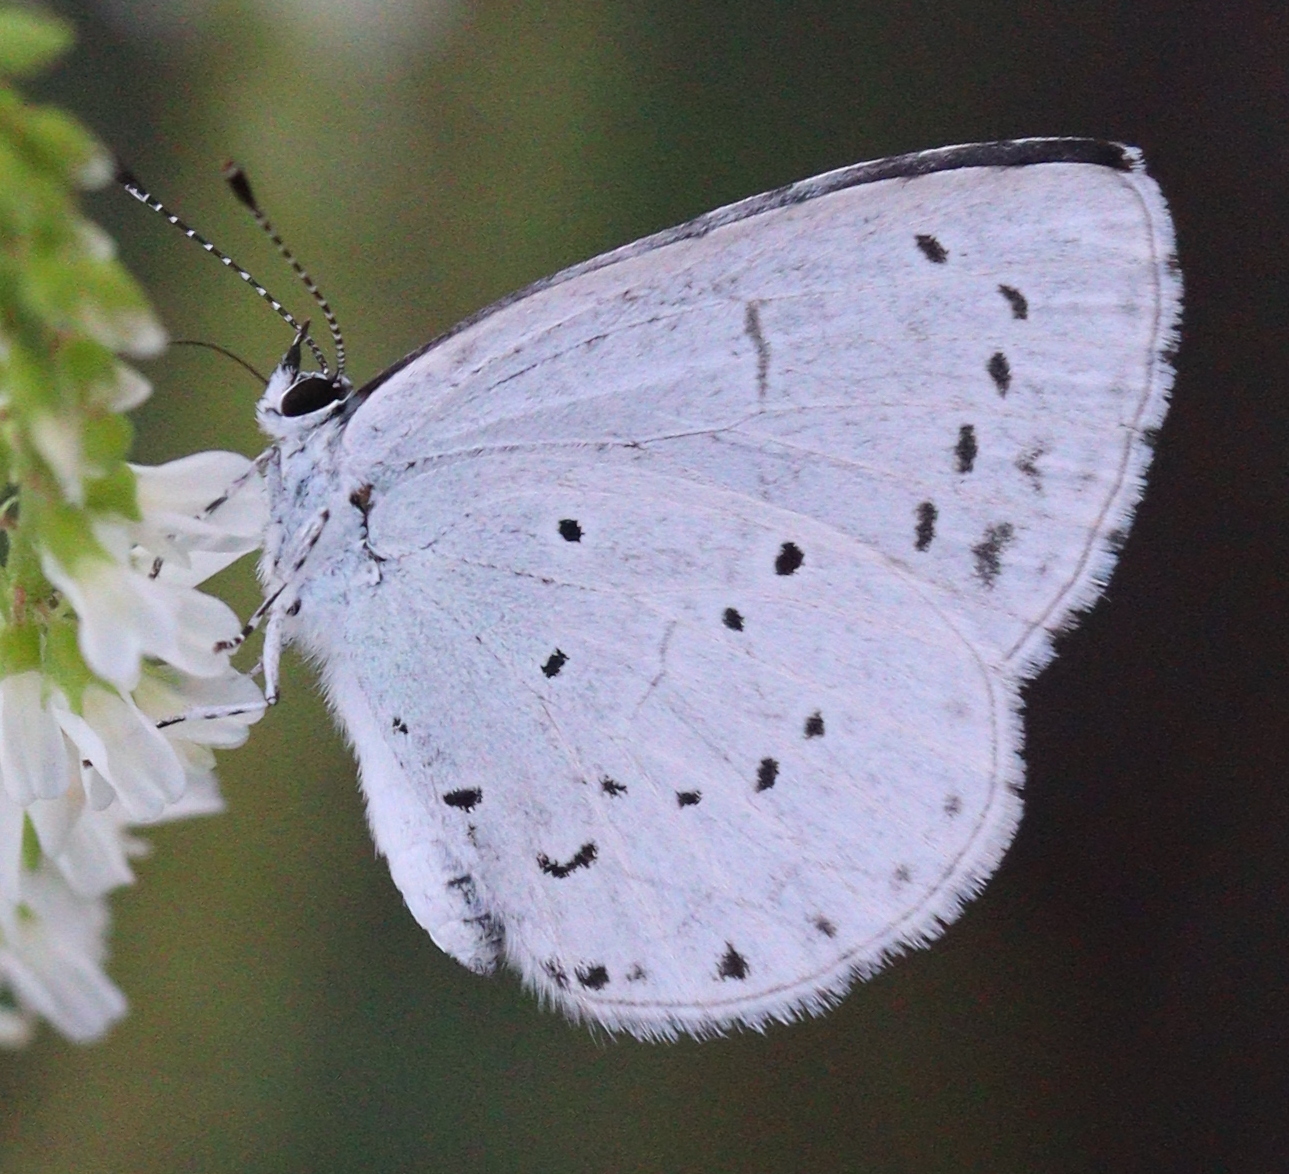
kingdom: Animalia
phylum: Arthropoda
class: Insecta
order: Lepidoptera
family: Lycaenidae
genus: Celastrina
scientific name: Celastrina argiolus
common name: Holly blue
